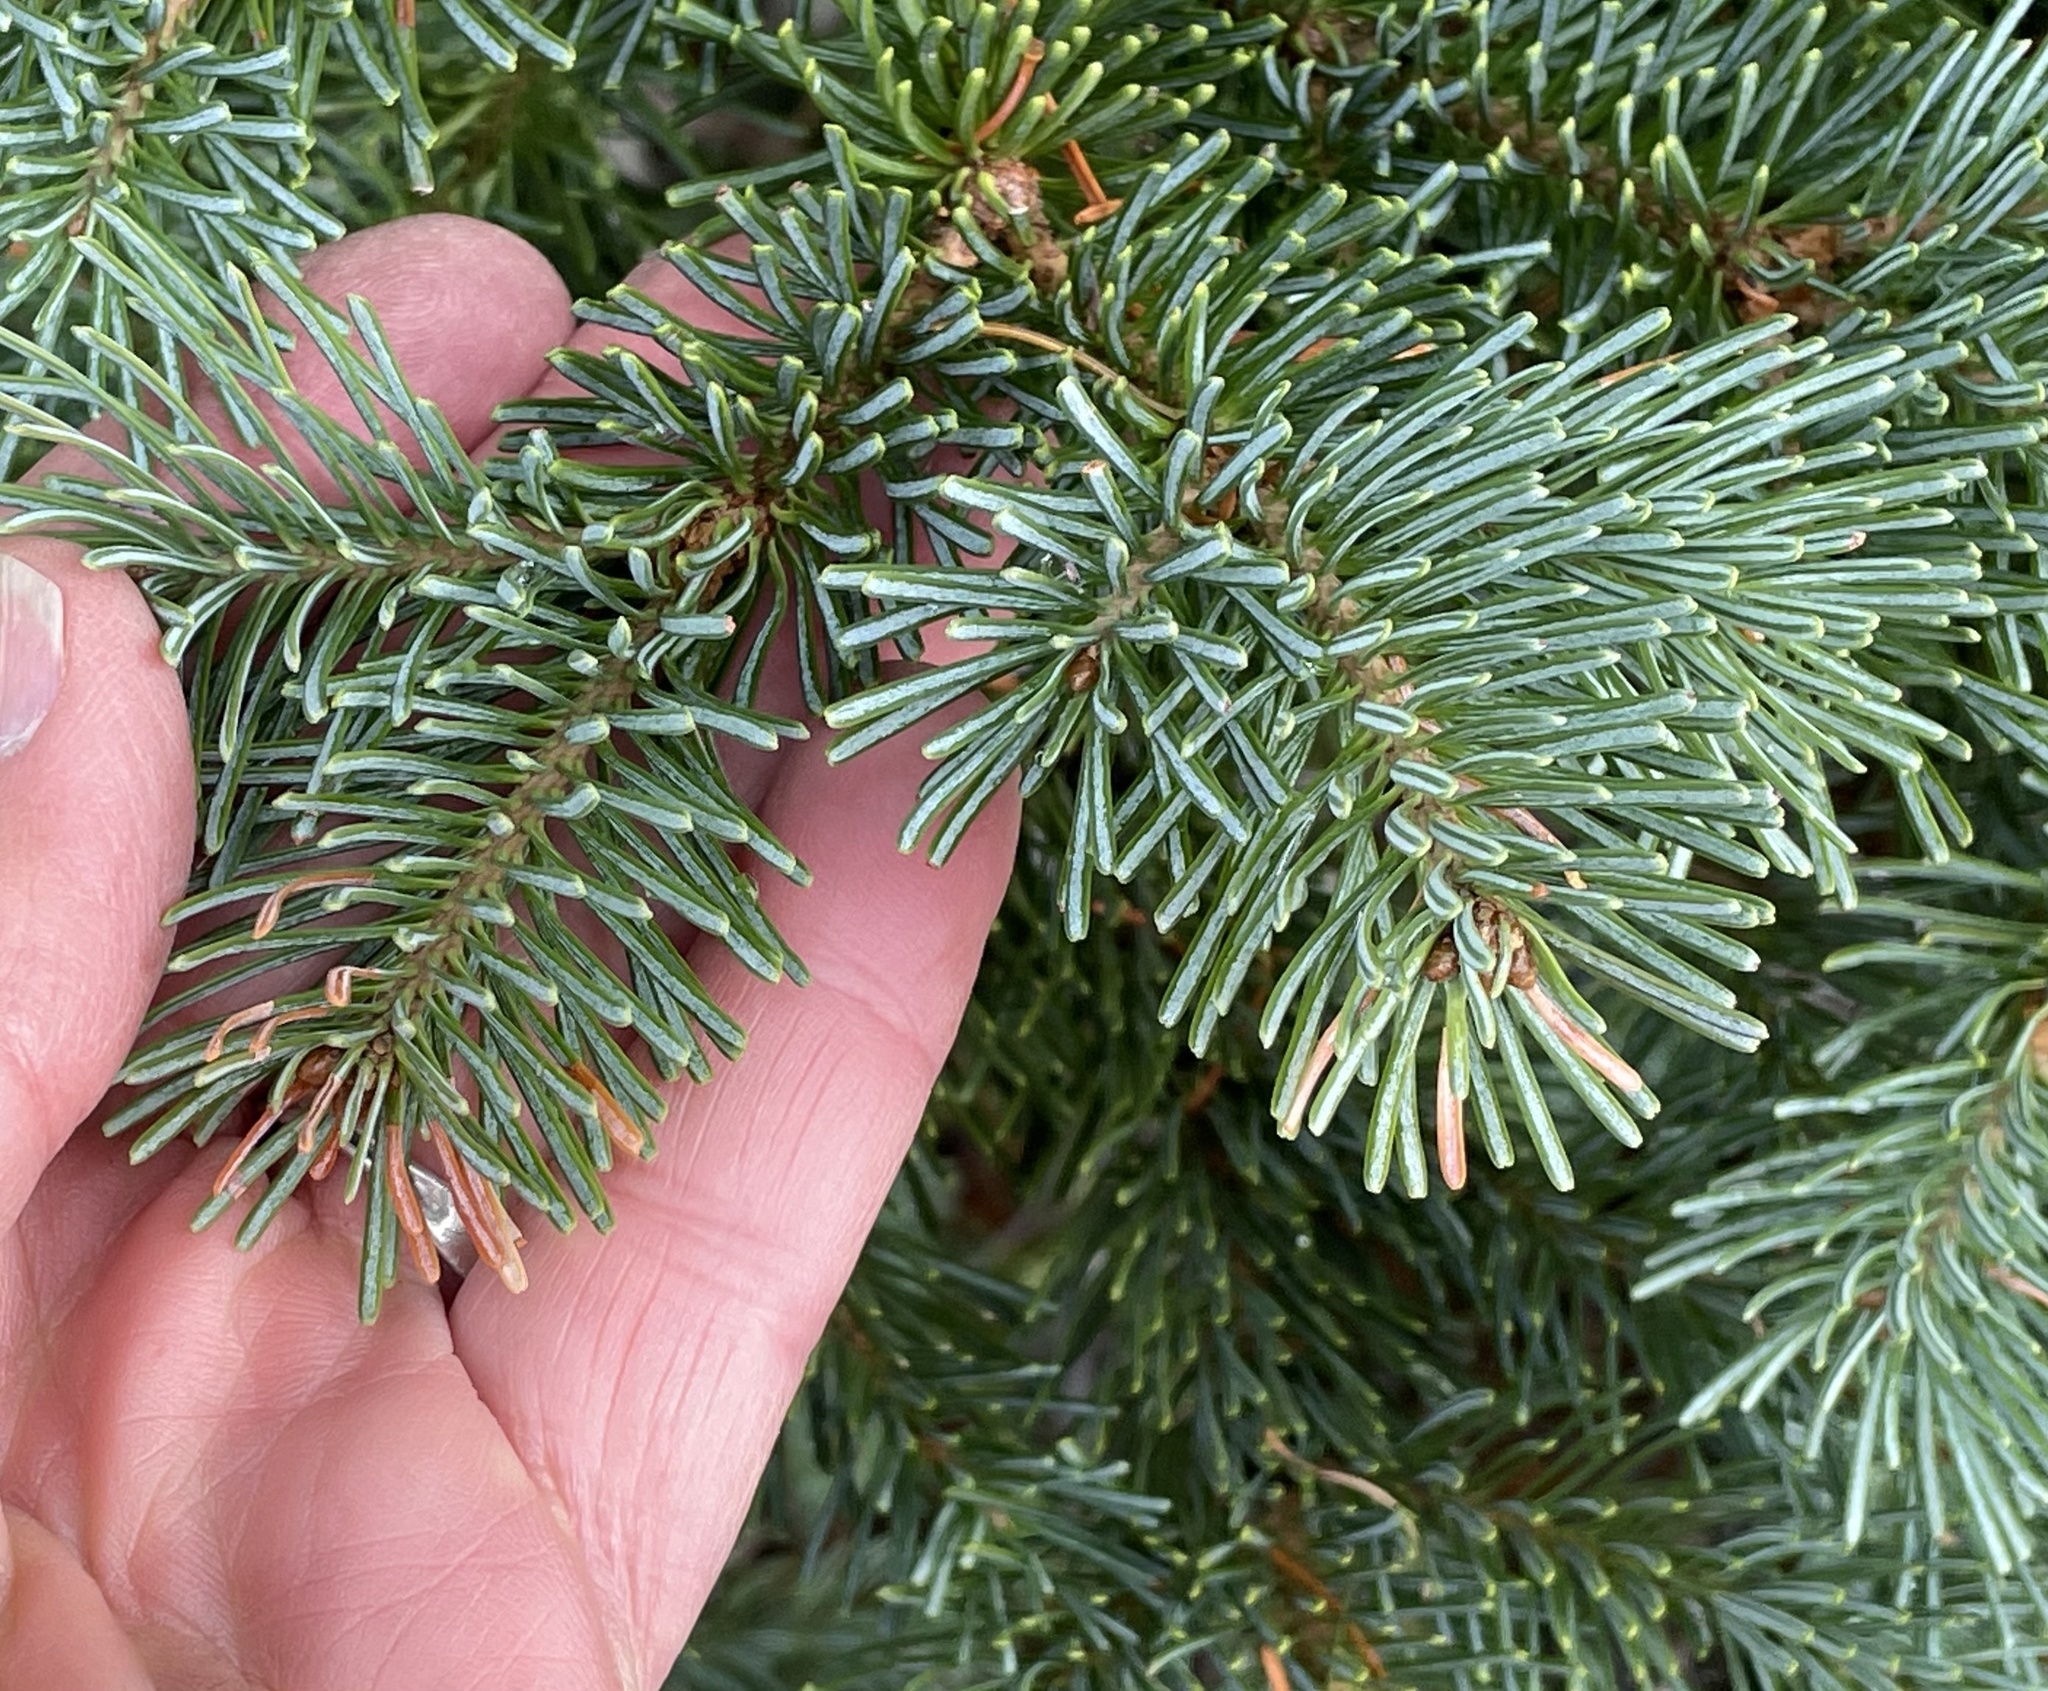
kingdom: Plantae
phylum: Tracheophyta
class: Pinopsida
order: Pinales
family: Pinaceae
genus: Abies
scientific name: Abies lasiocarpa
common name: Subalpine fir
